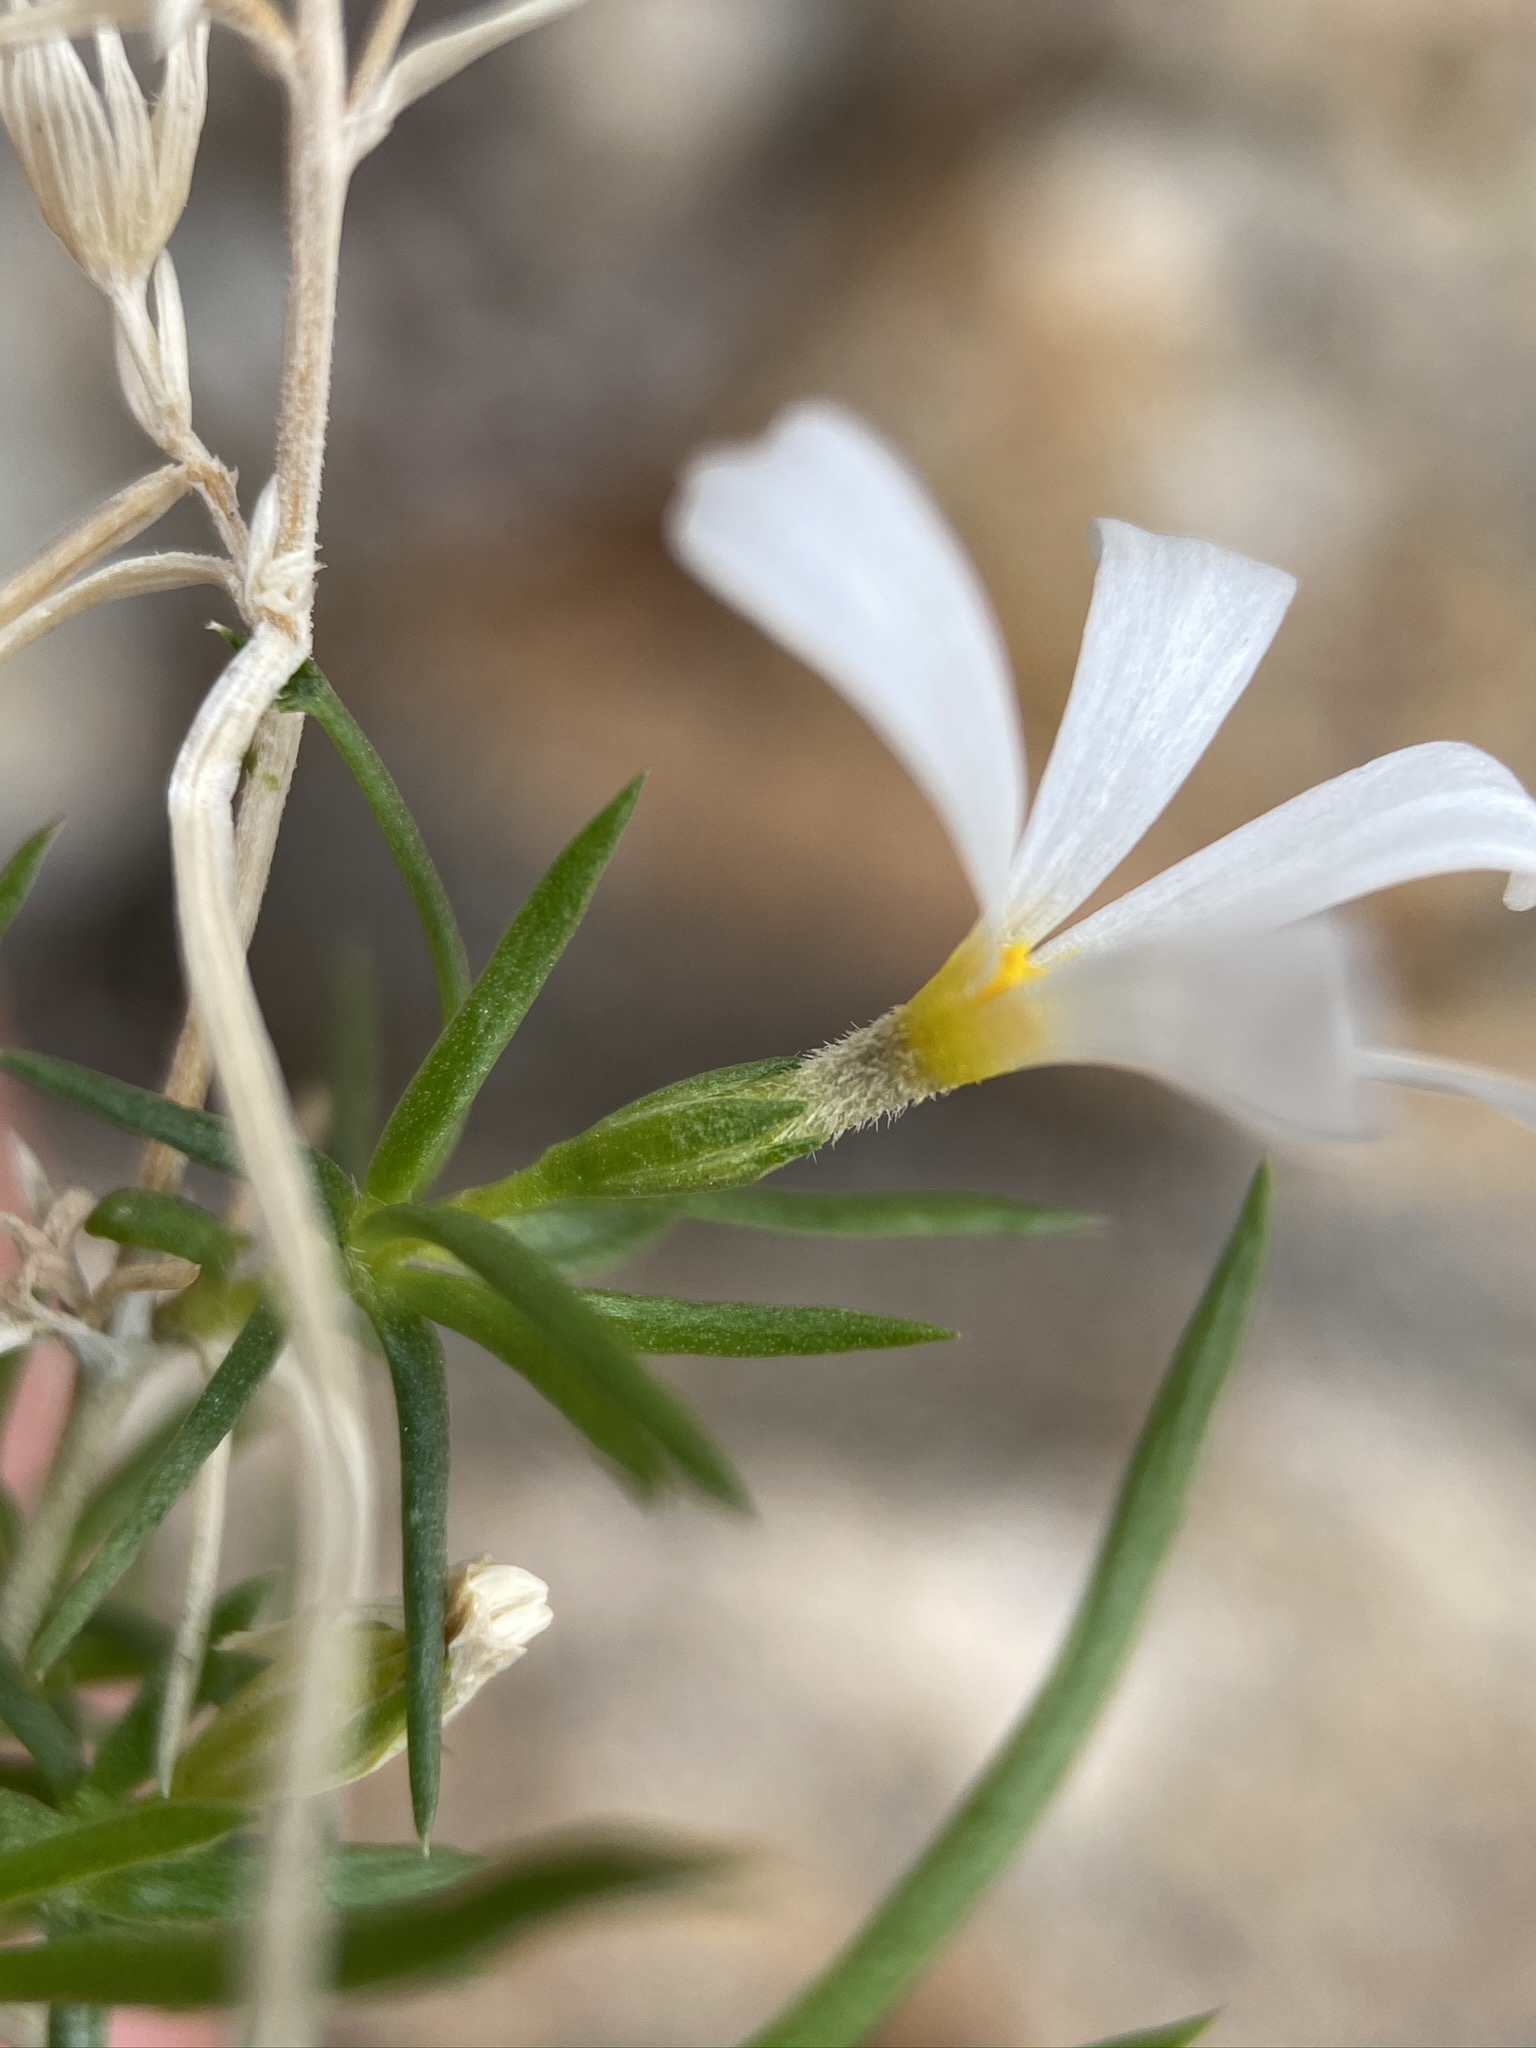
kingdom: Plantae
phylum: Tracheophyta
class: Magnoliopsida
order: Ericales
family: Polemoniaceae
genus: Leptosiphon
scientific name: Leptosiphon floribundum
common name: Many-flower linanthus
